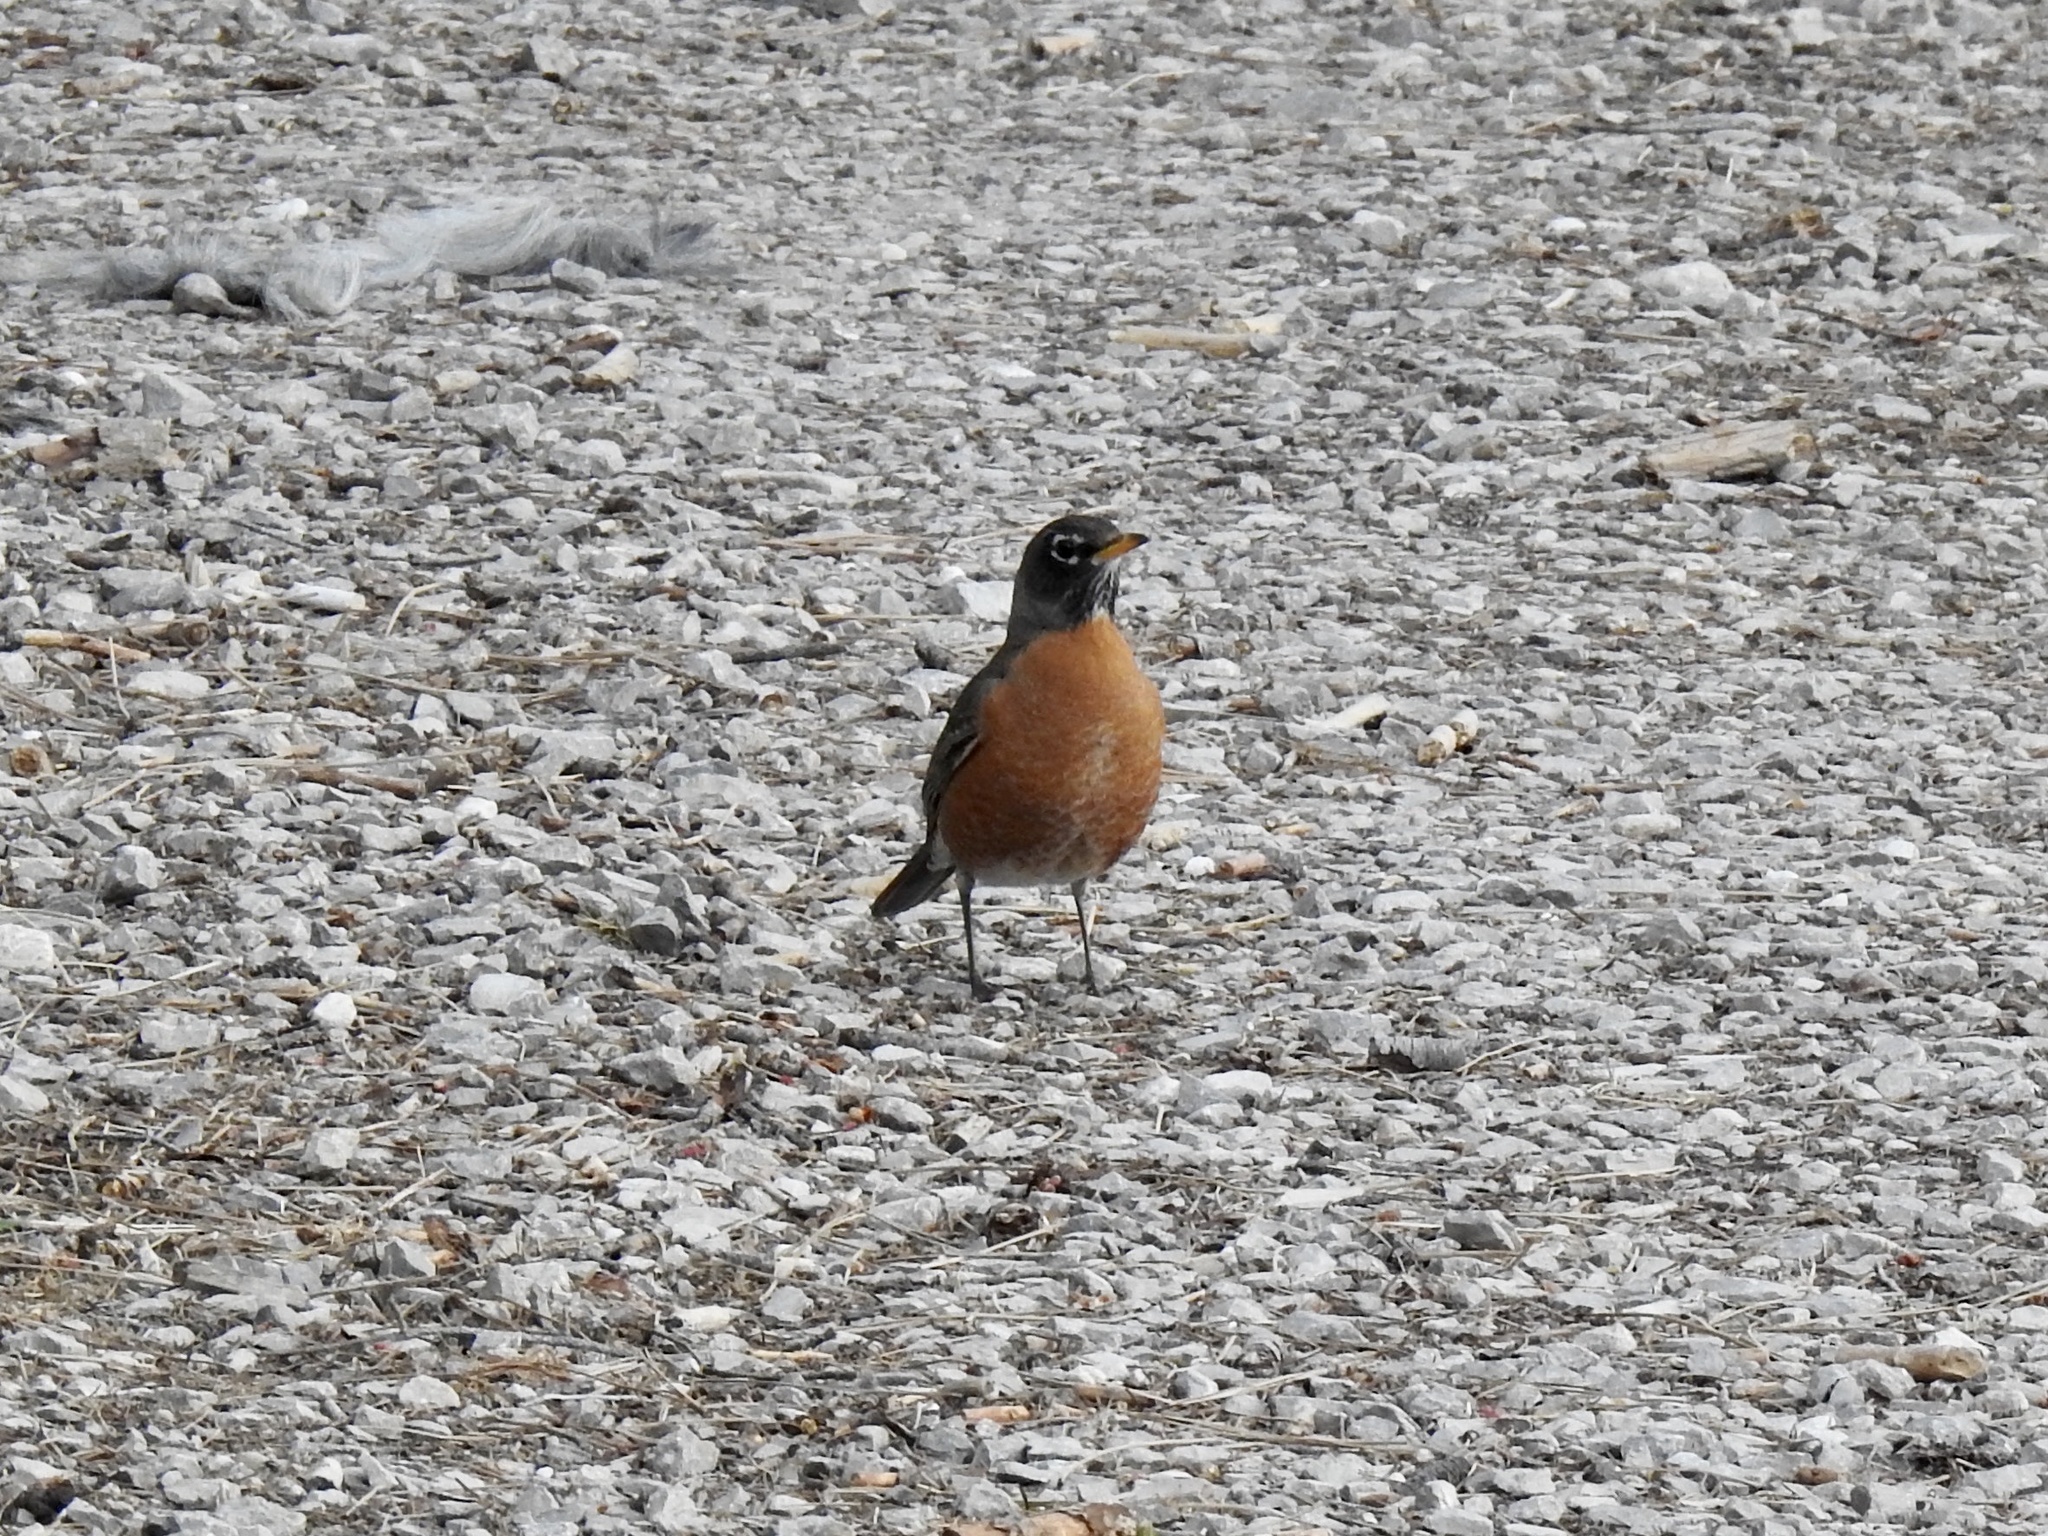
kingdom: Animalia
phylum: Chordata
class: Aves
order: Passeriformes
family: Turdidae
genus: Turdus
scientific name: Turdus migratorius
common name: American robin
